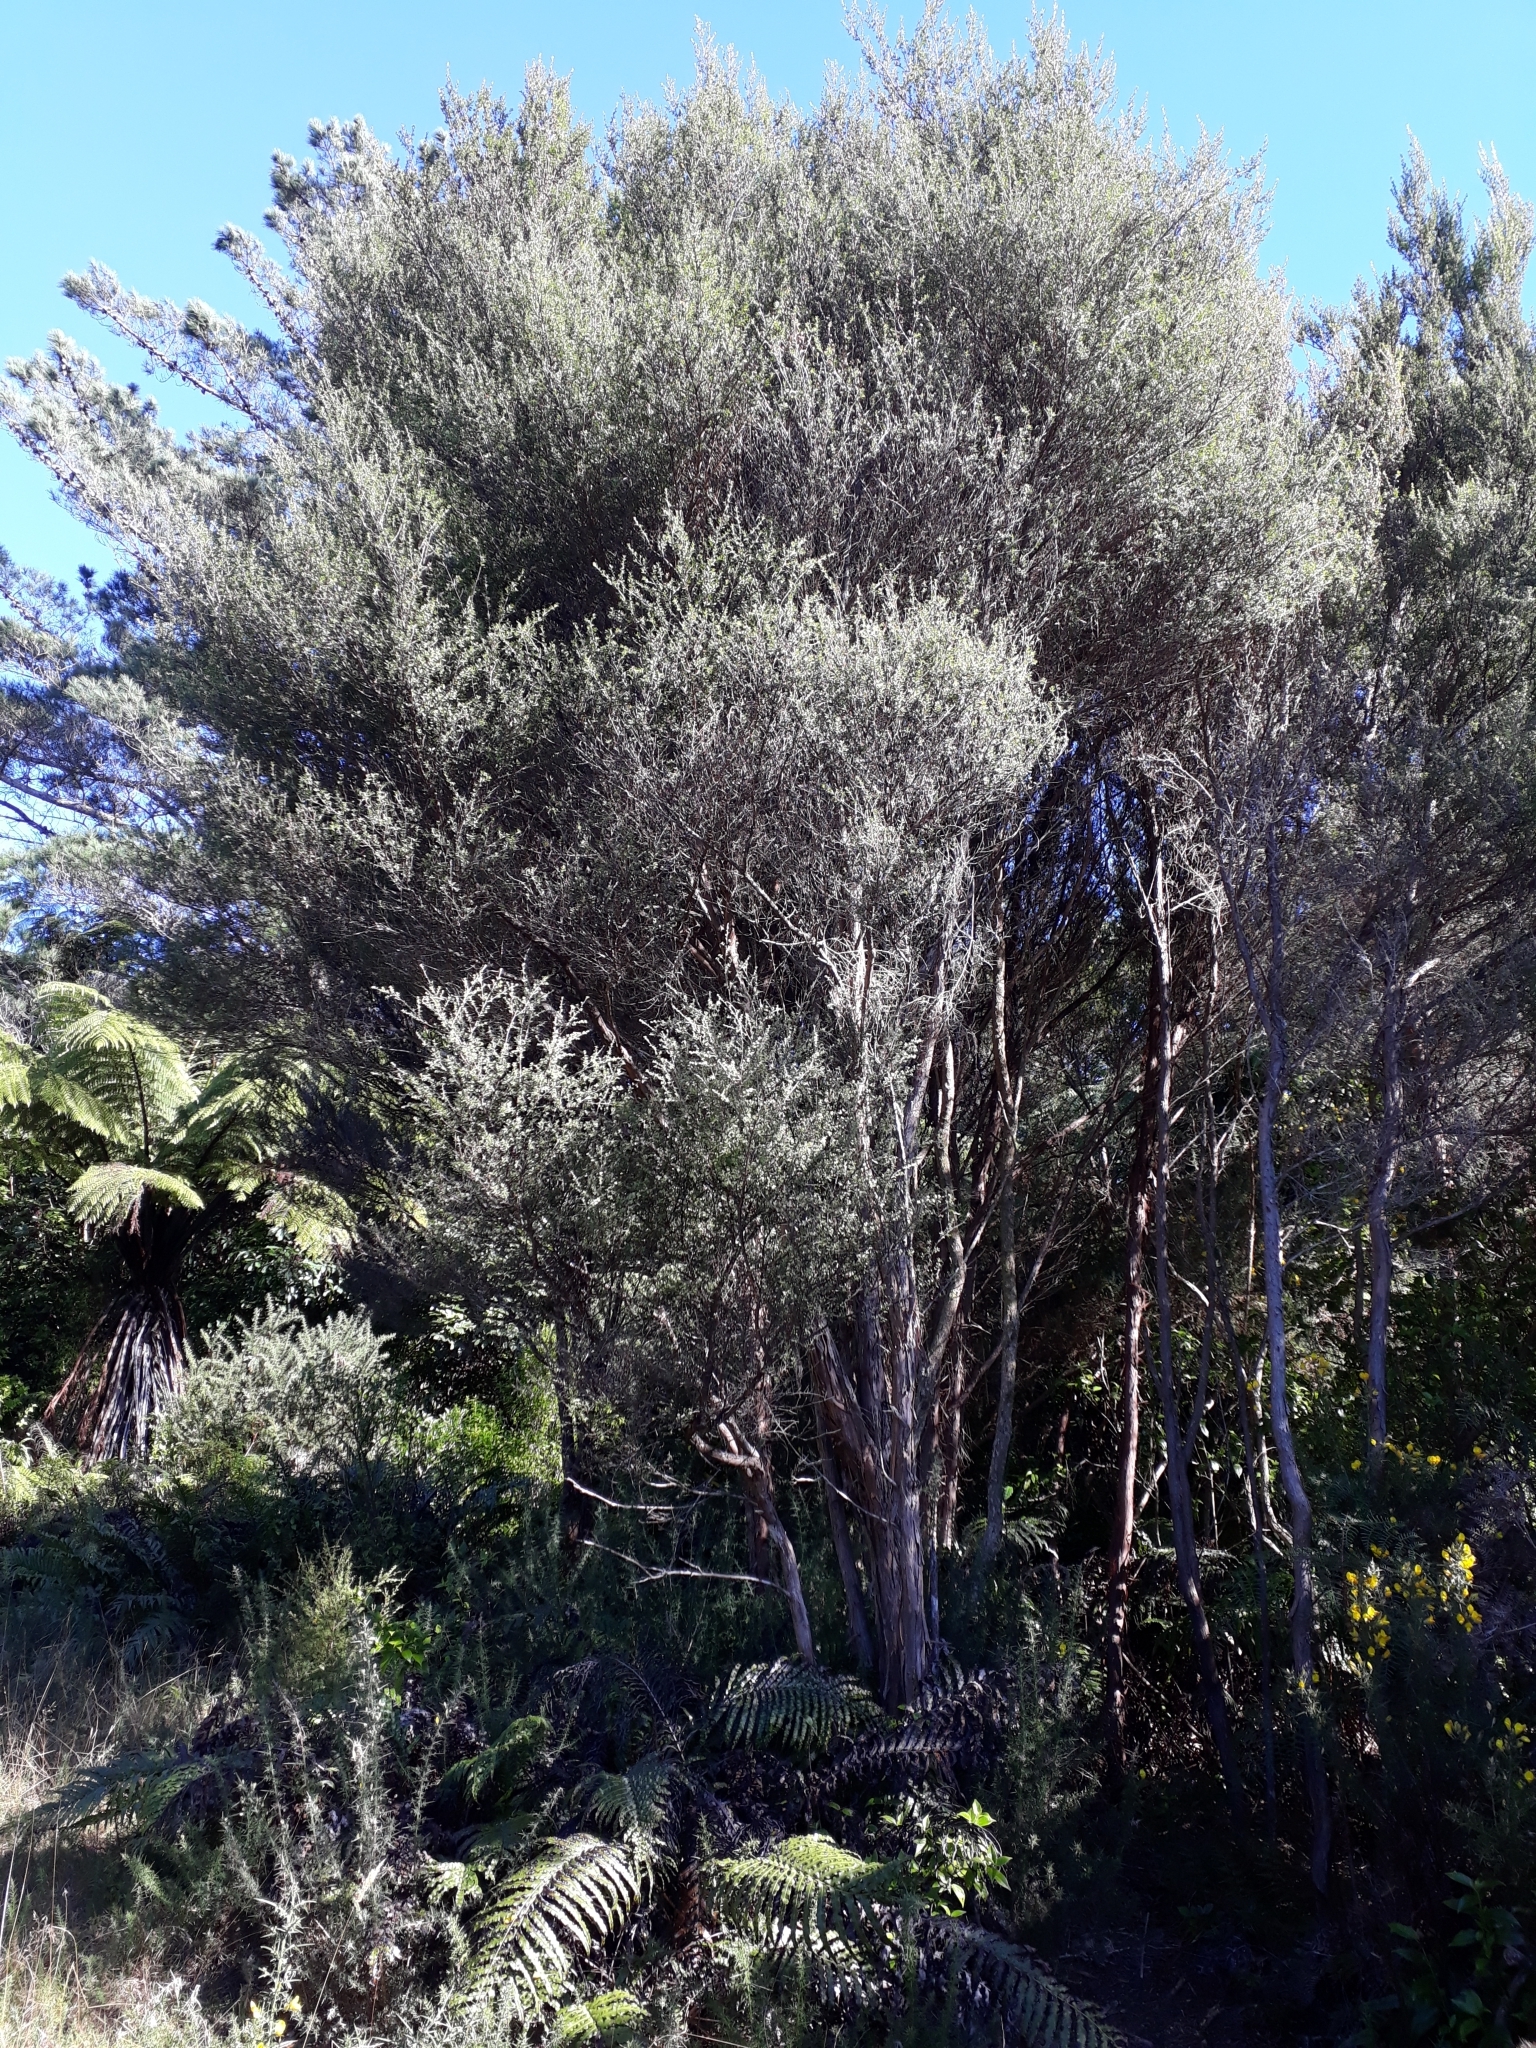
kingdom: Plantae
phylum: Tracheophyta
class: Magnoliopsida
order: Myrtales
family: Myrtaceae
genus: Leptospermum
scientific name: Leptospermum scoparium
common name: Broom tea-tree
